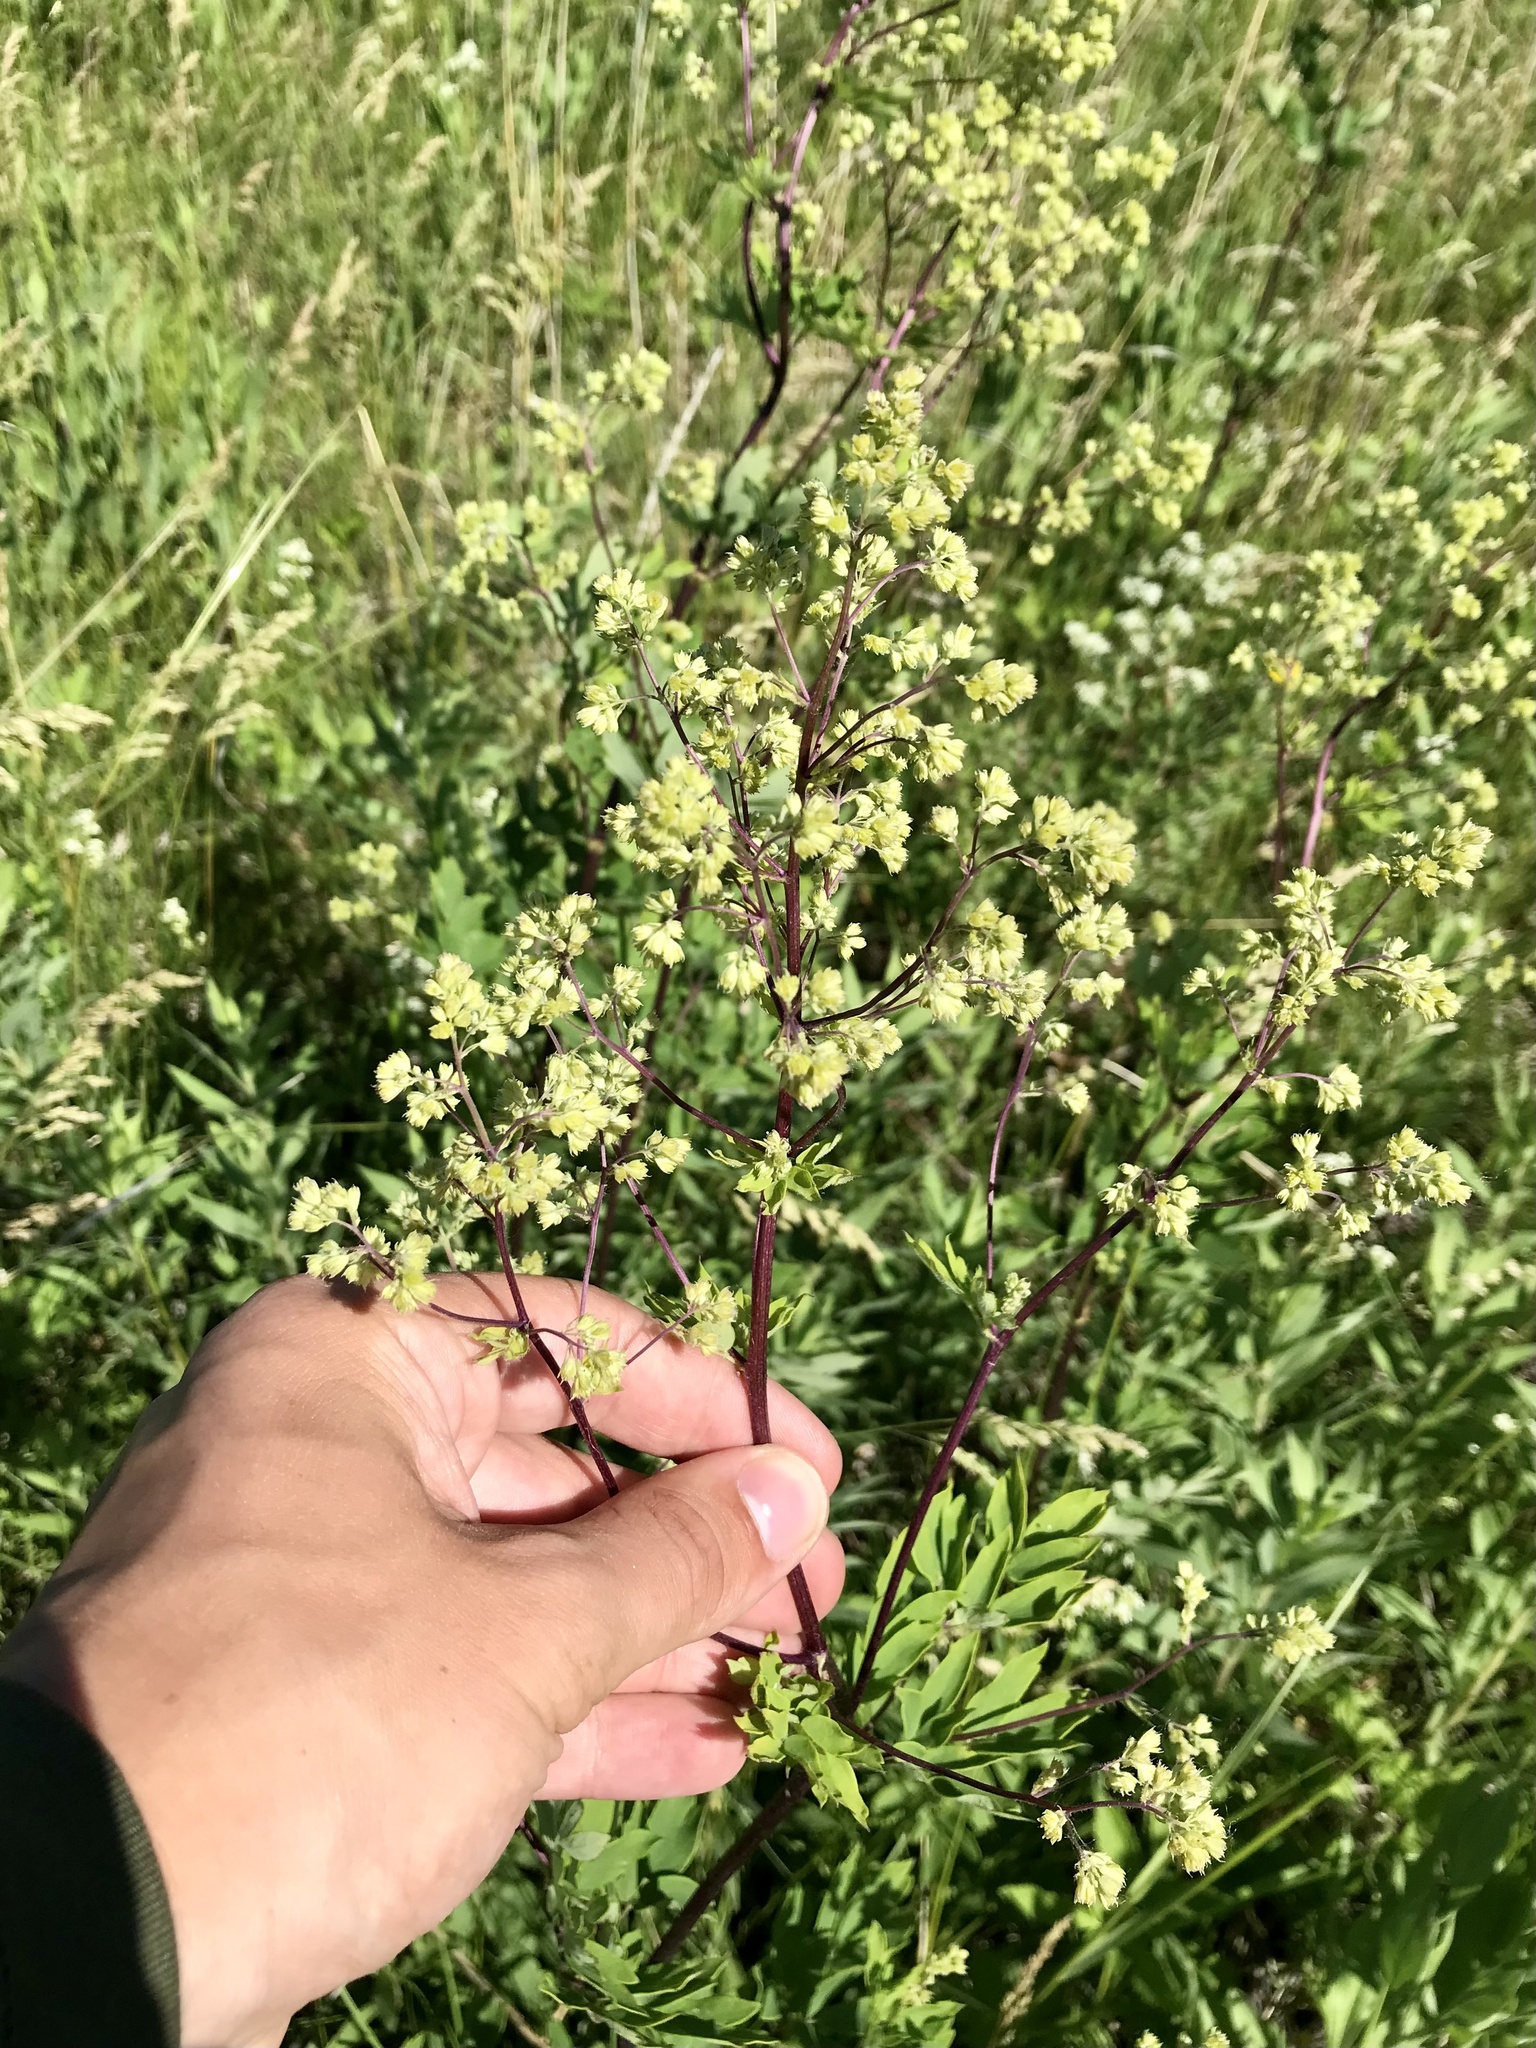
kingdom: Plantae
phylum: Tracheophyta
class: Magnoliopsida
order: Ranunculales
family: Ranunculaceae
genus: Thalictrum
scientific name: Thalictrum dasycarpum
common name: Purple meadow-rue
